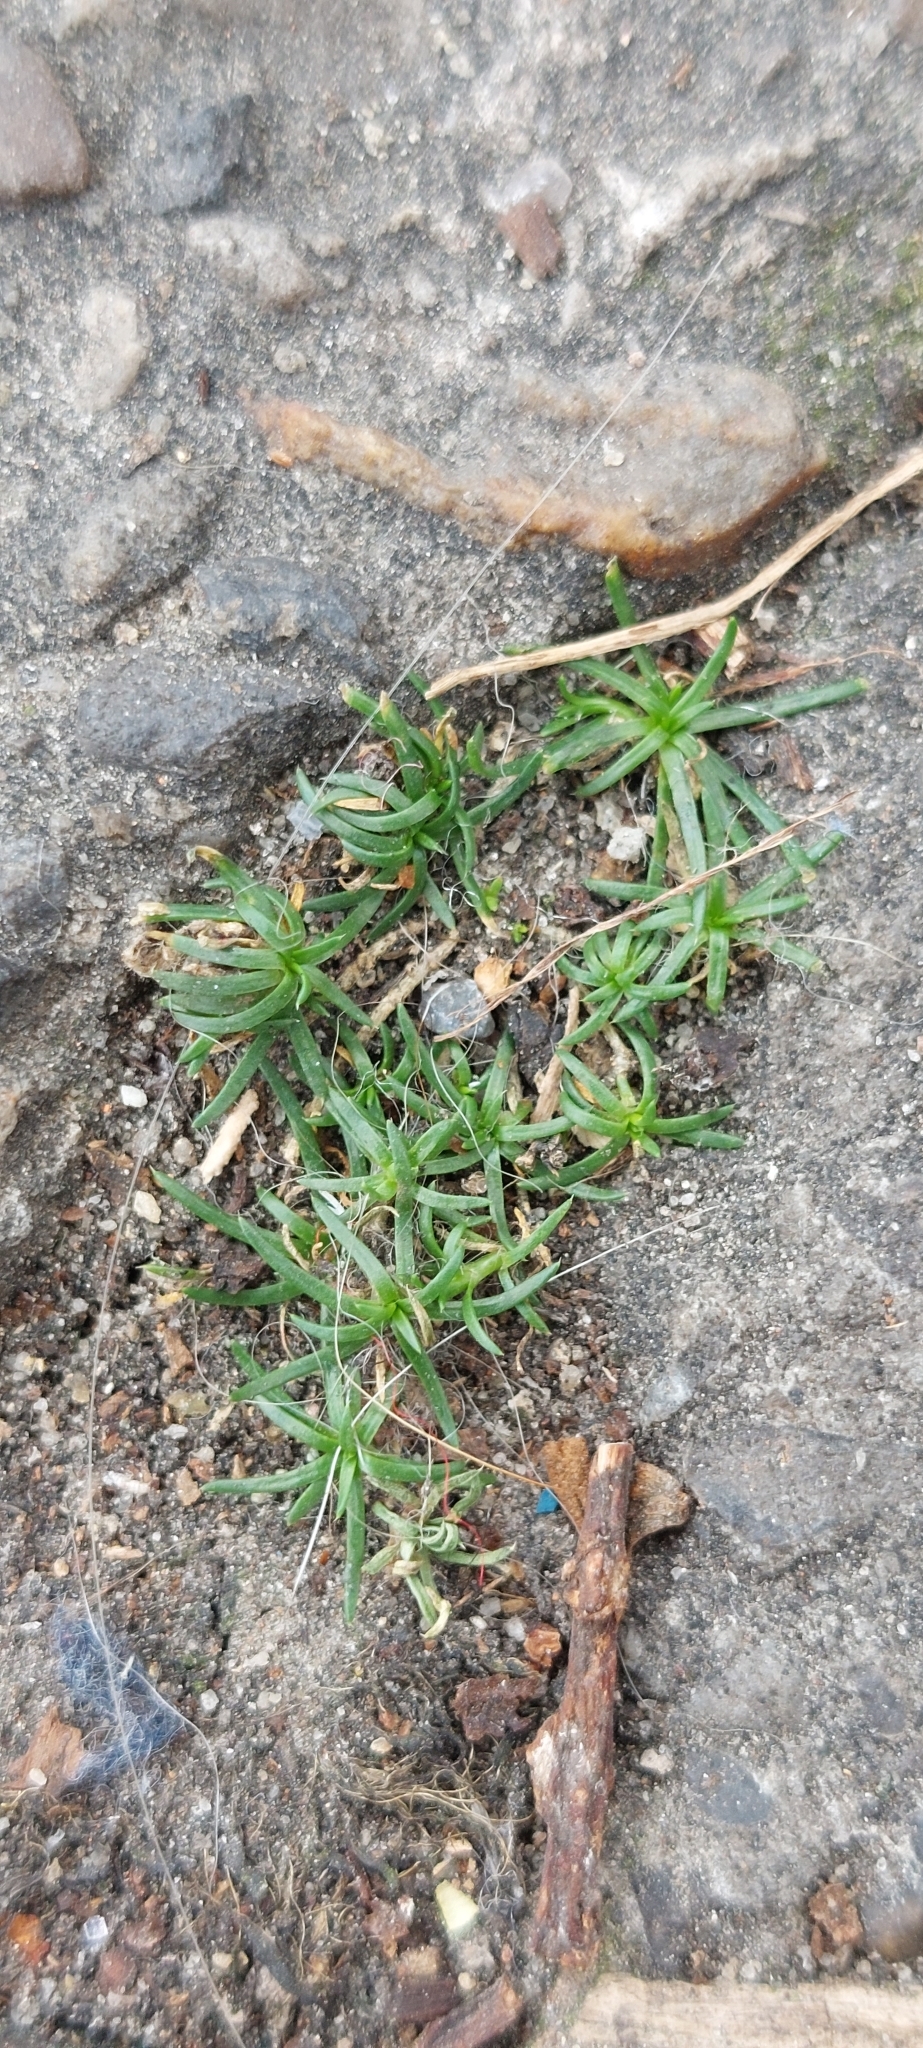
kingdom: Plantae
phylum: Tracheophyta
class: Magnoliopsida
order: Caryophyllales
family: Caryophyllaceae
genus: Sagina
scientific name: Sagina procumbens
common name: Procumbent pearlwort
